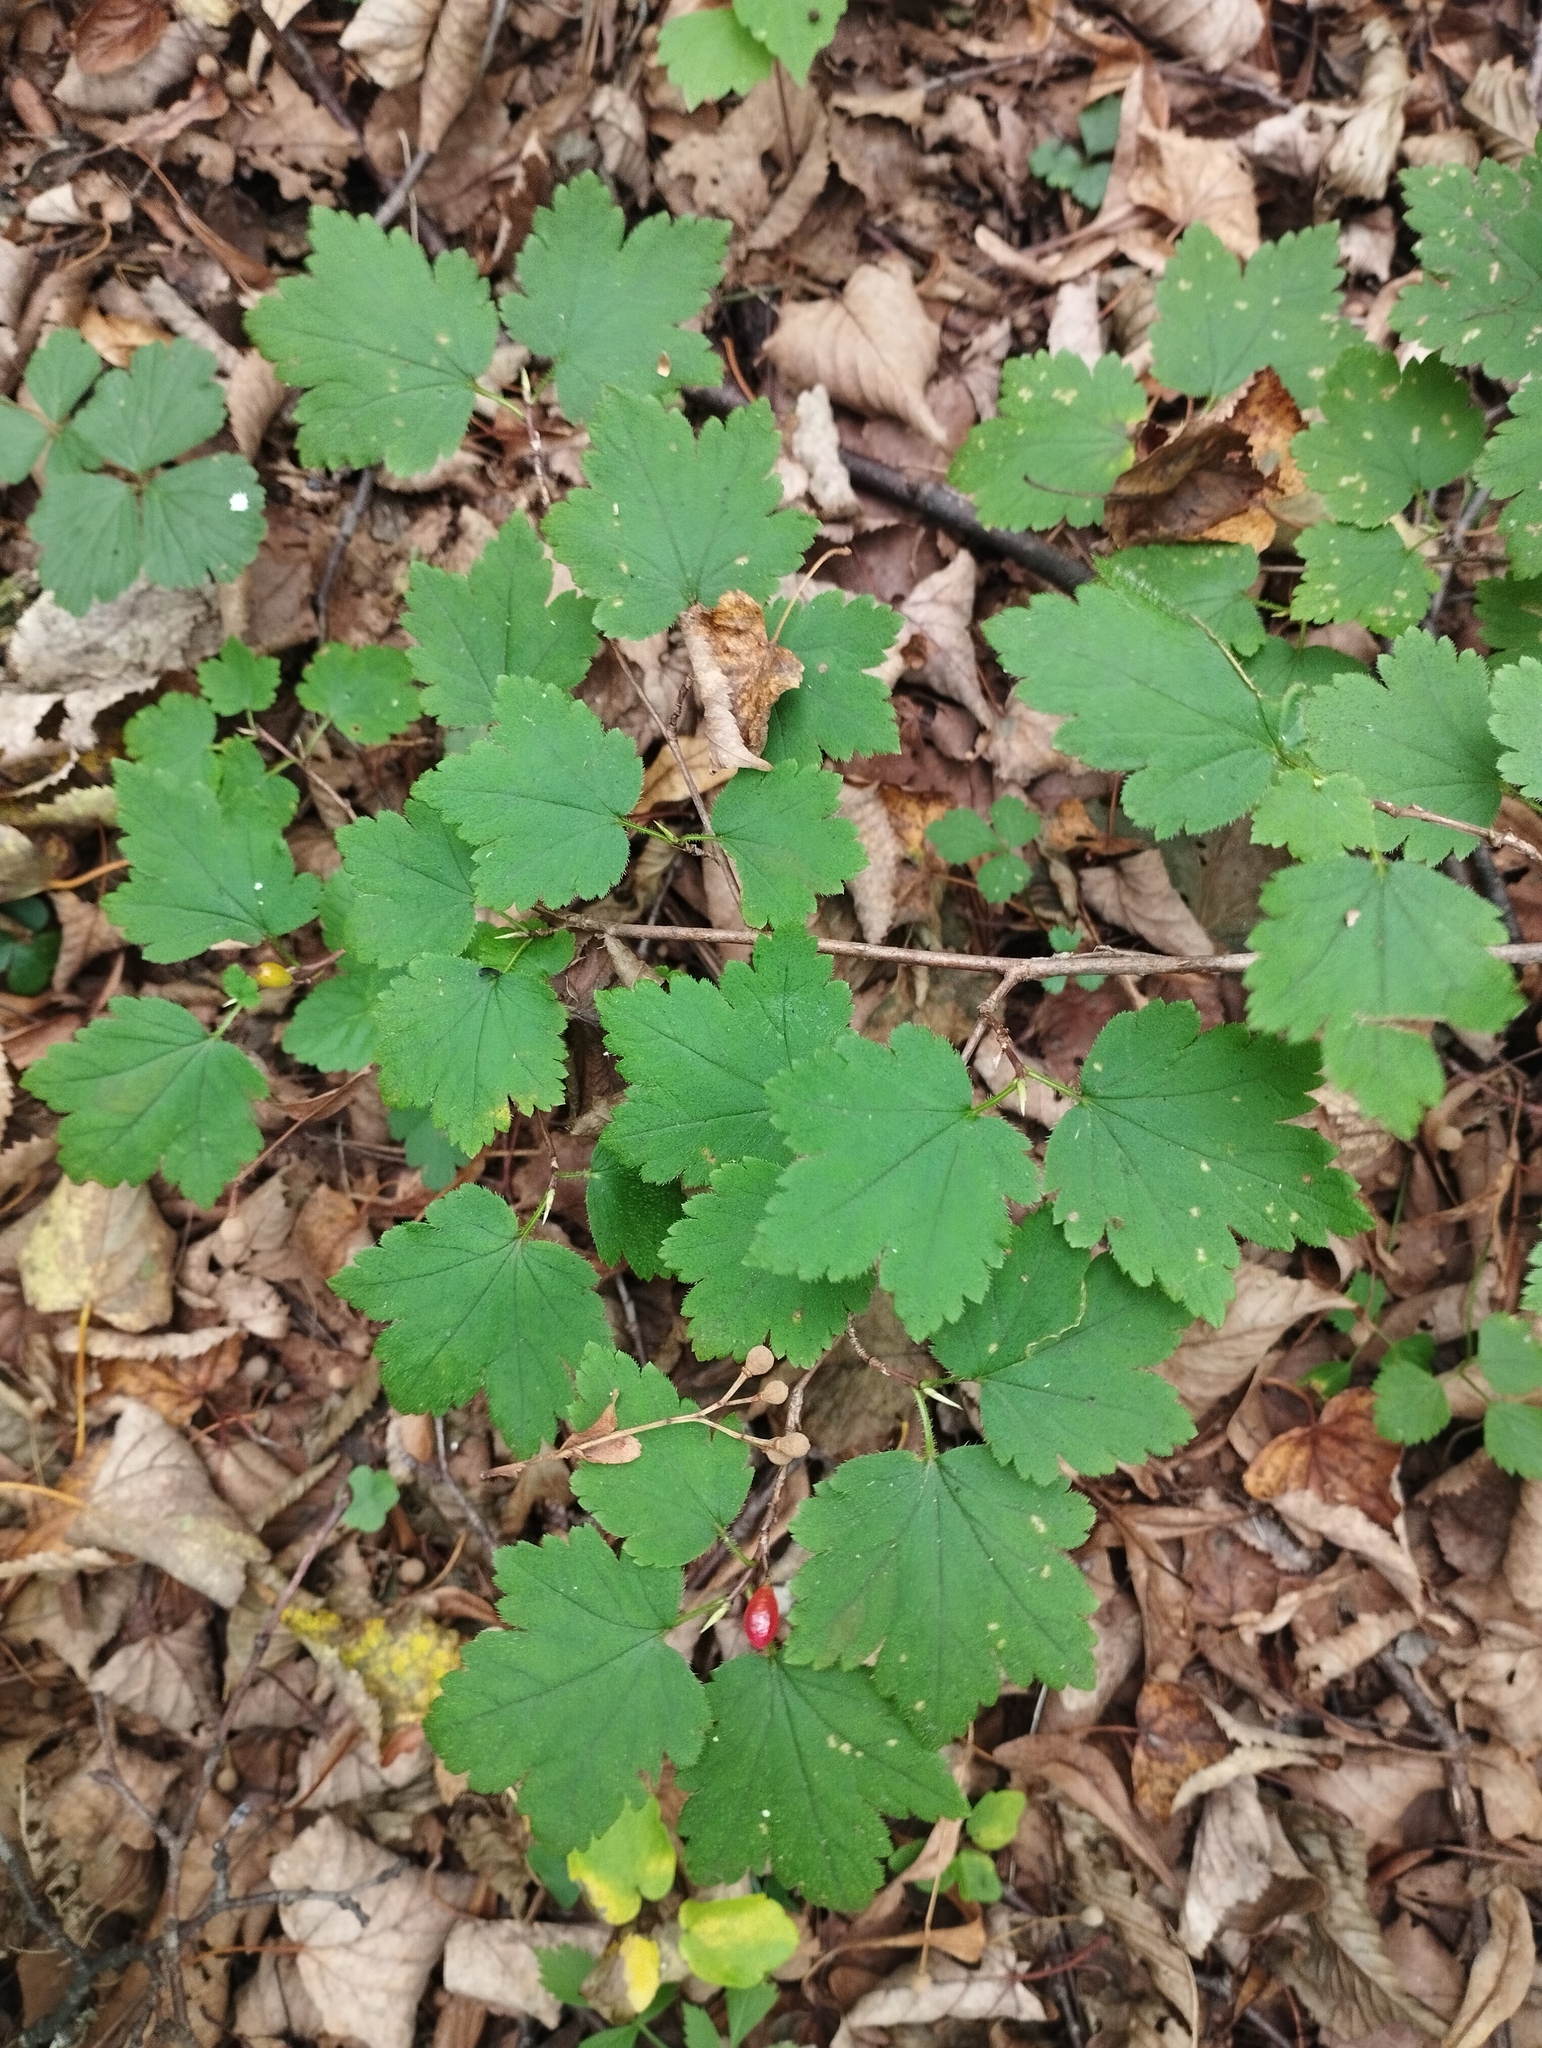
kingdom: Plantae
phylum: Tracheophyta
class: Magnoliopsida
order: Saxifragales
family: Grossulariaceae
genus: Ribes
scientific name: Ribes maximoviczianum
